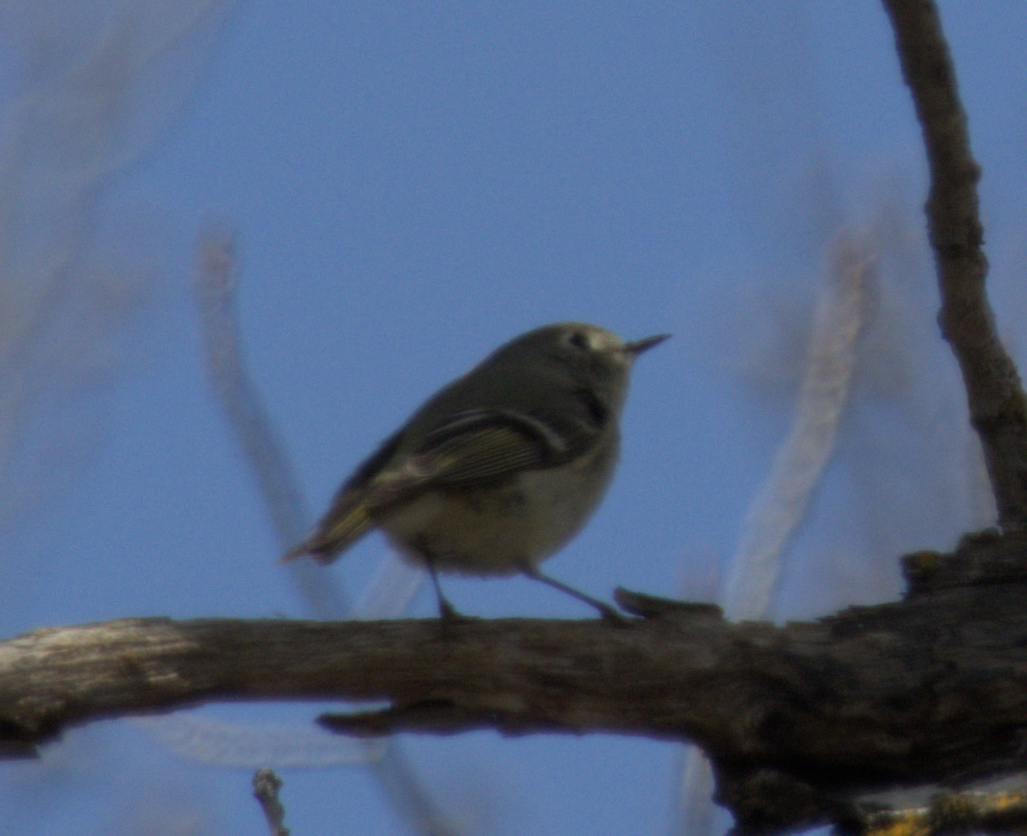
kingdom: Animalia
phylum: Chordata
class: Aves
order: Passeriformes
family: Regulidae
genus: Regulus
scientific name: Regulus calendula
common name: Ruby-crowned kinglet
